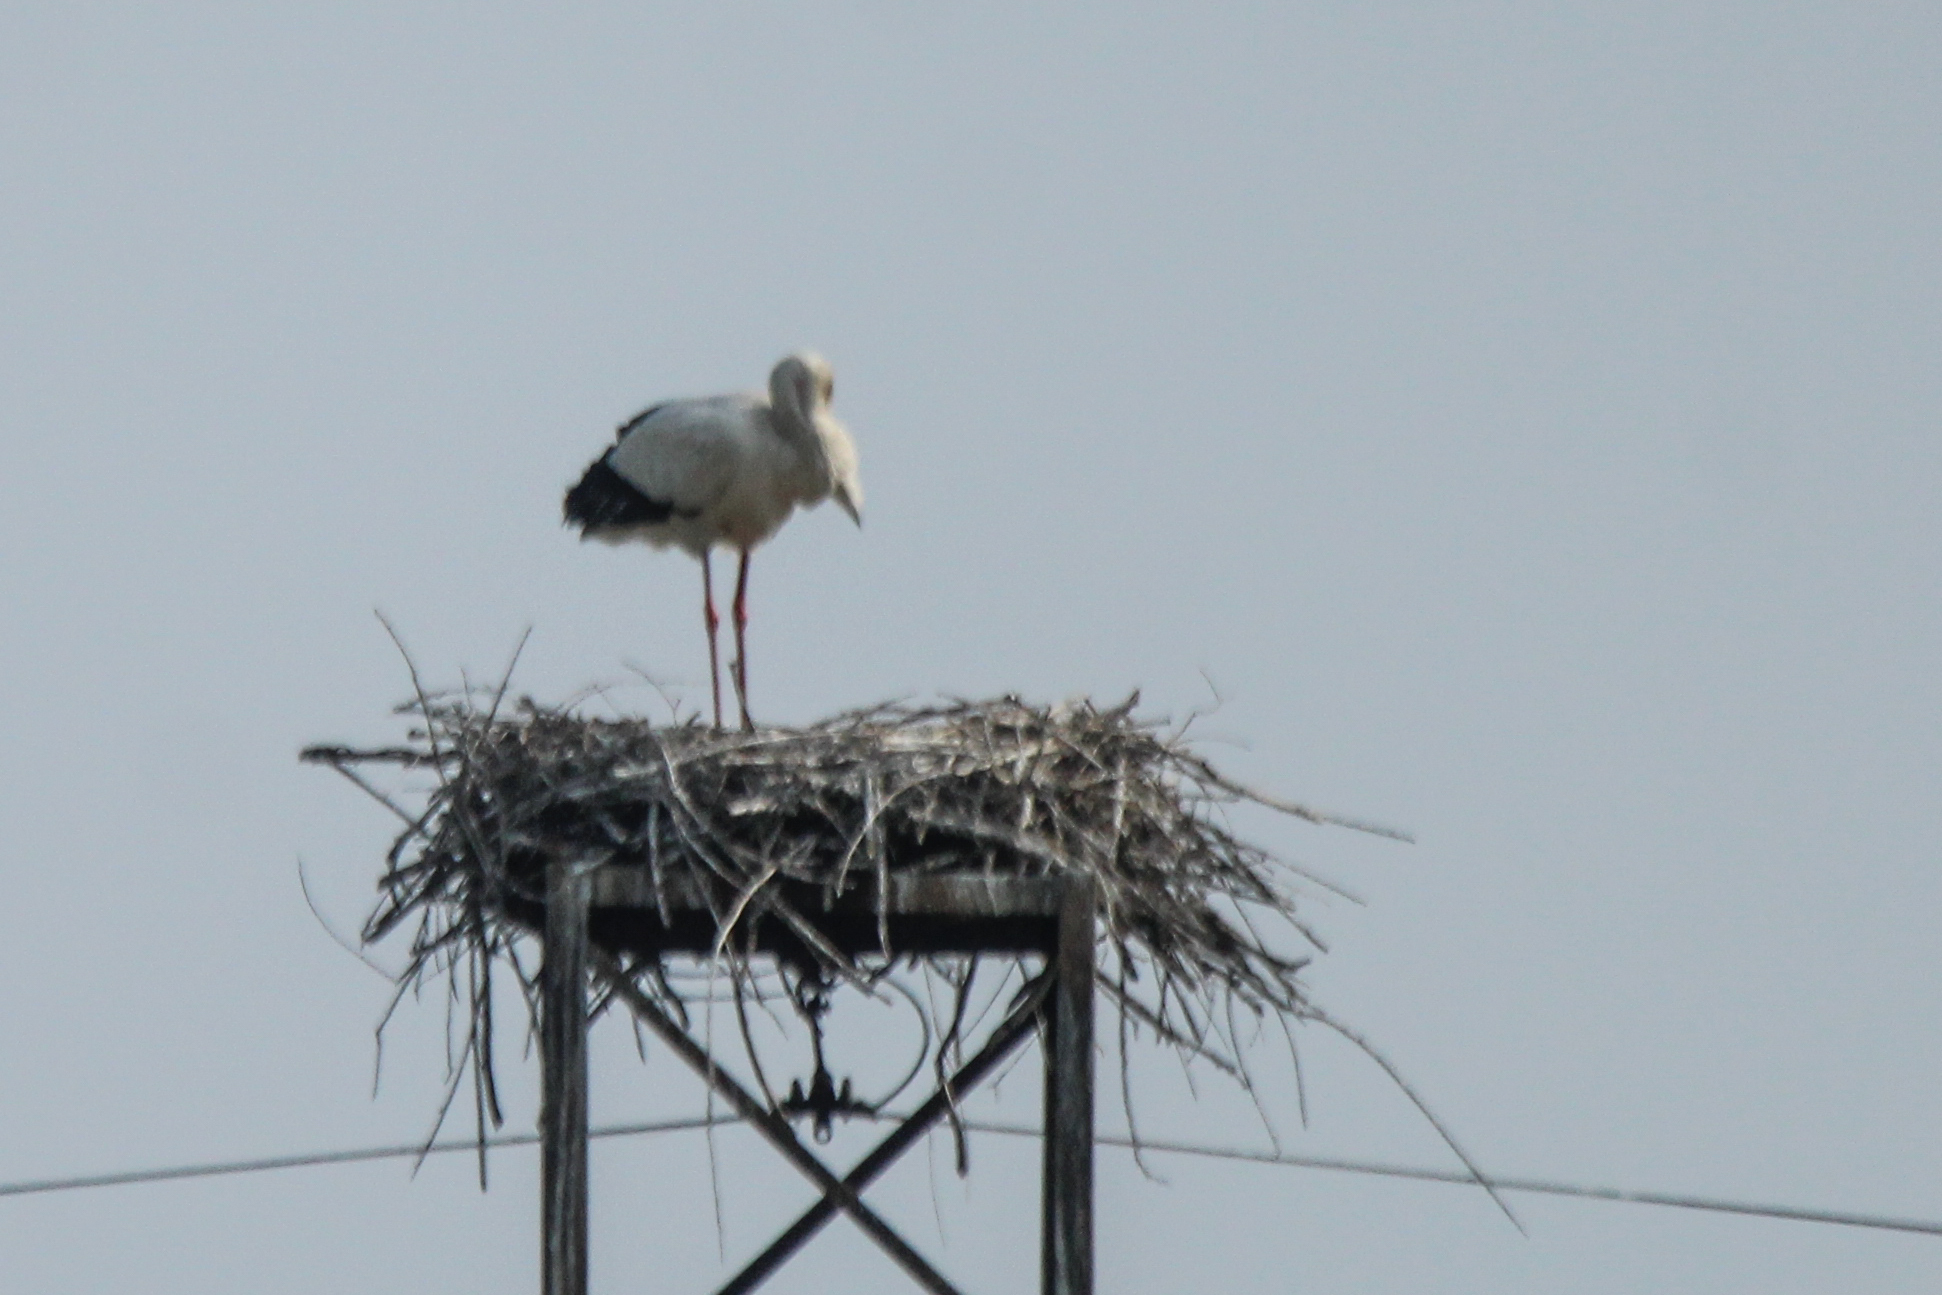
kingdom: Animalia
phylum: Chordata
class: Aves
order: Ciconiiformes
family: Ciconiidae
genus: Ciconia
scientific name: Ciconia boyciana
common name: Oriental stork
